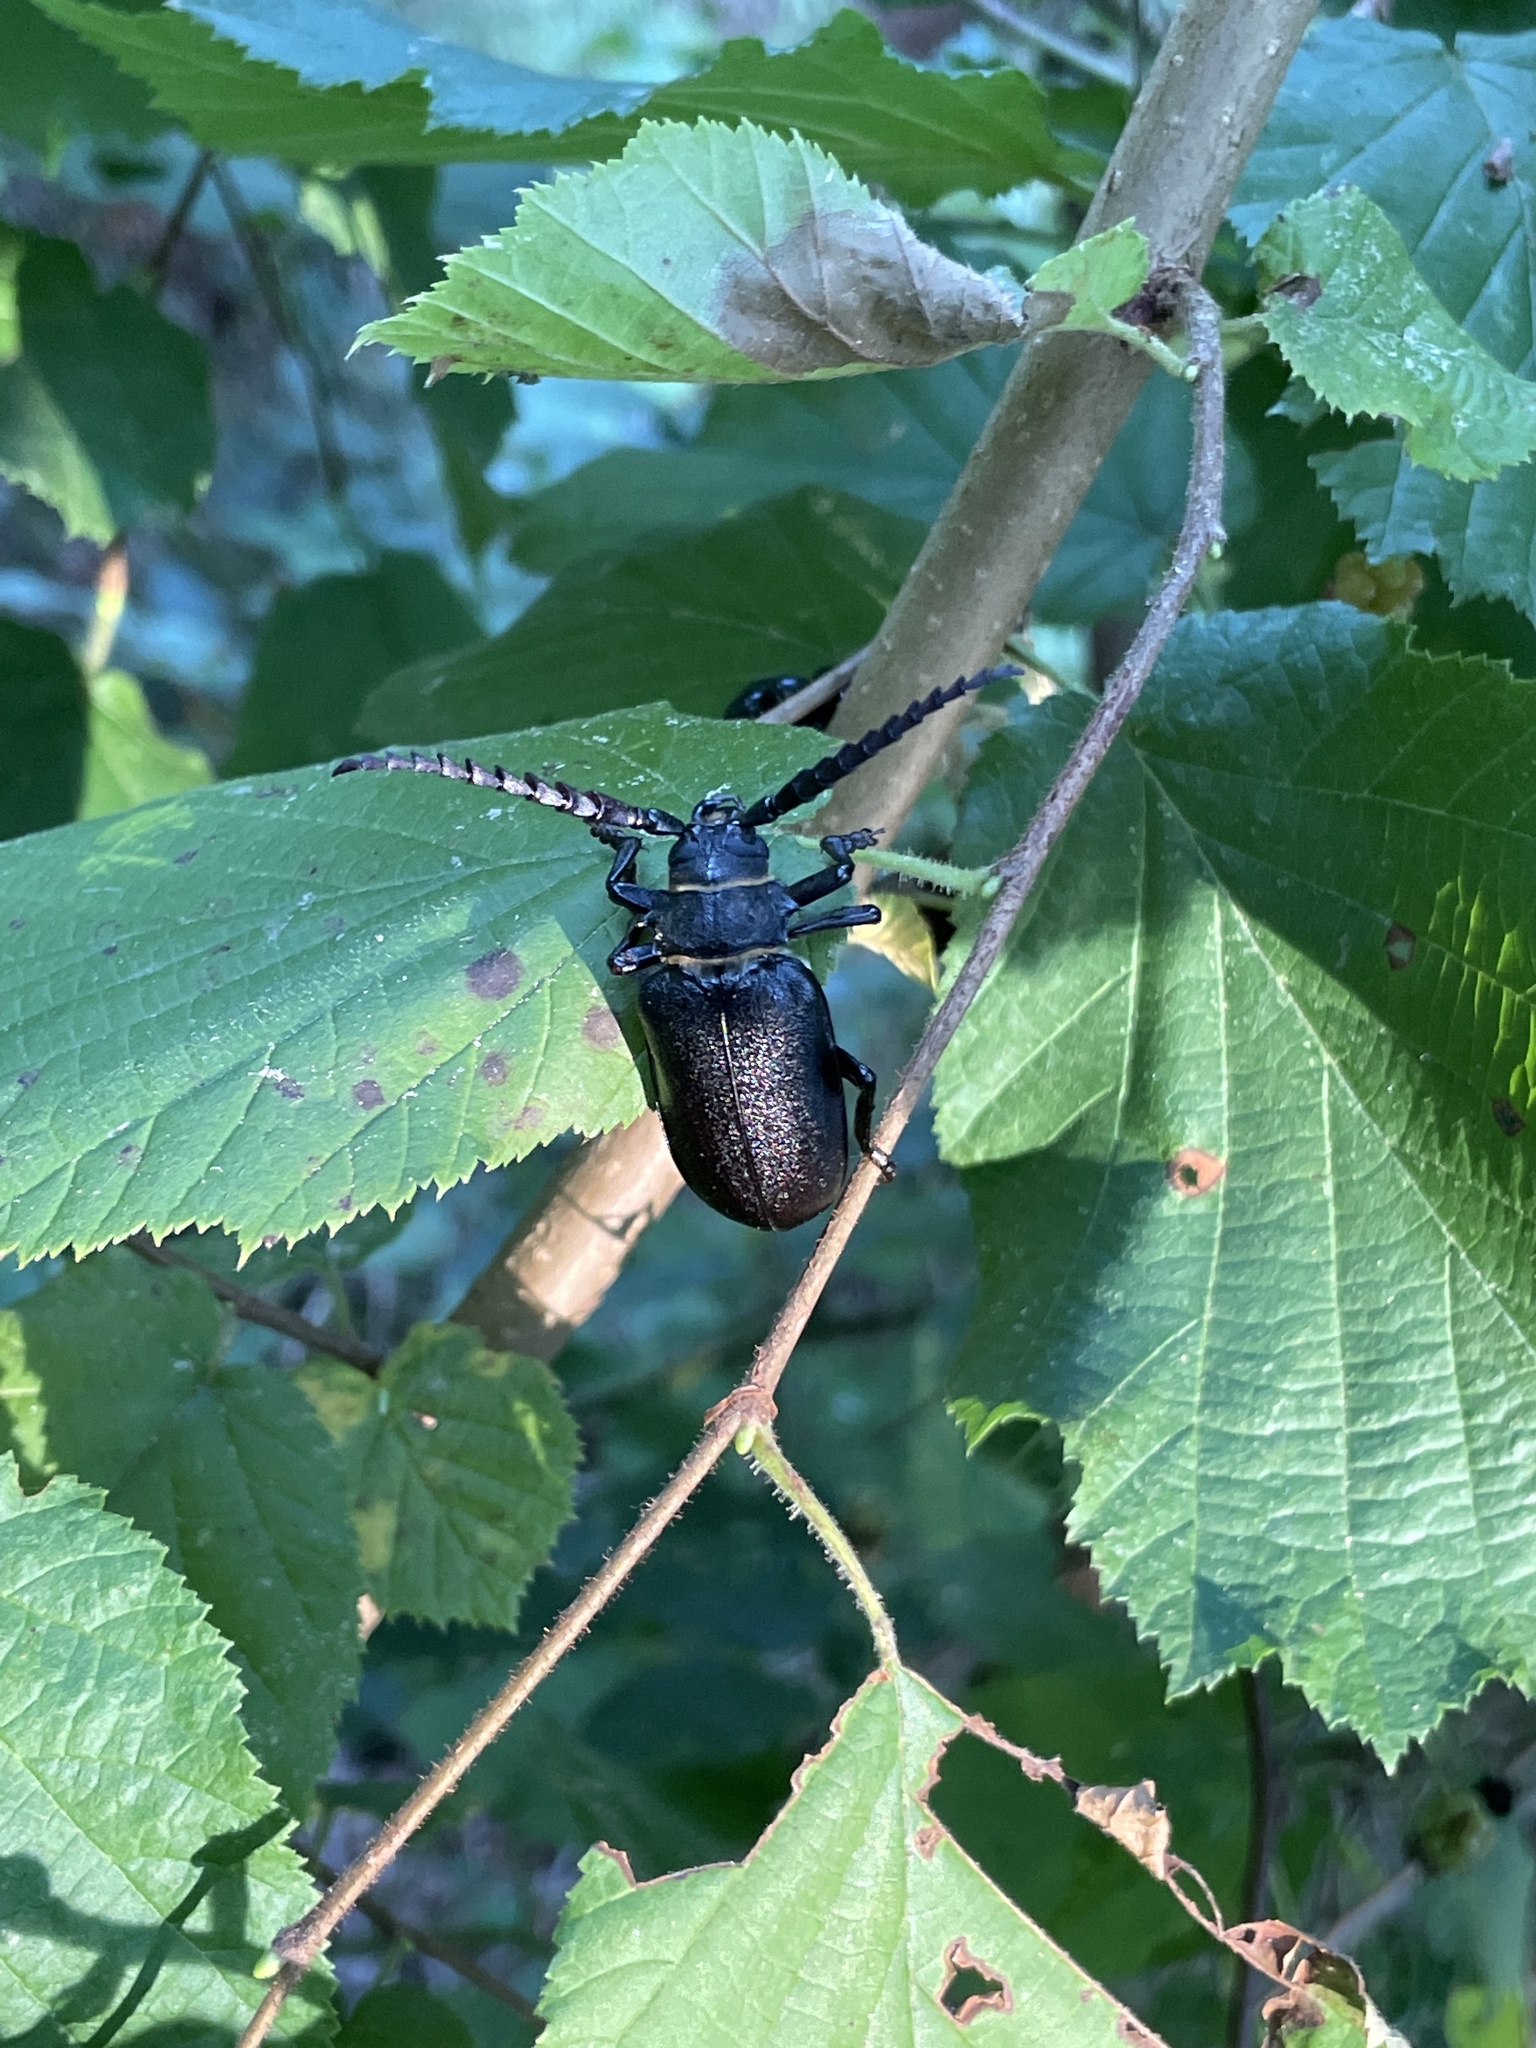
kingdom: Animalia
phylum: Arthropoda
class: Insecta
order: Coleoptera
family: Cerambycidae
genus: Prionus
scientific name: Prionus coriarius
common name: Tanner beetle
